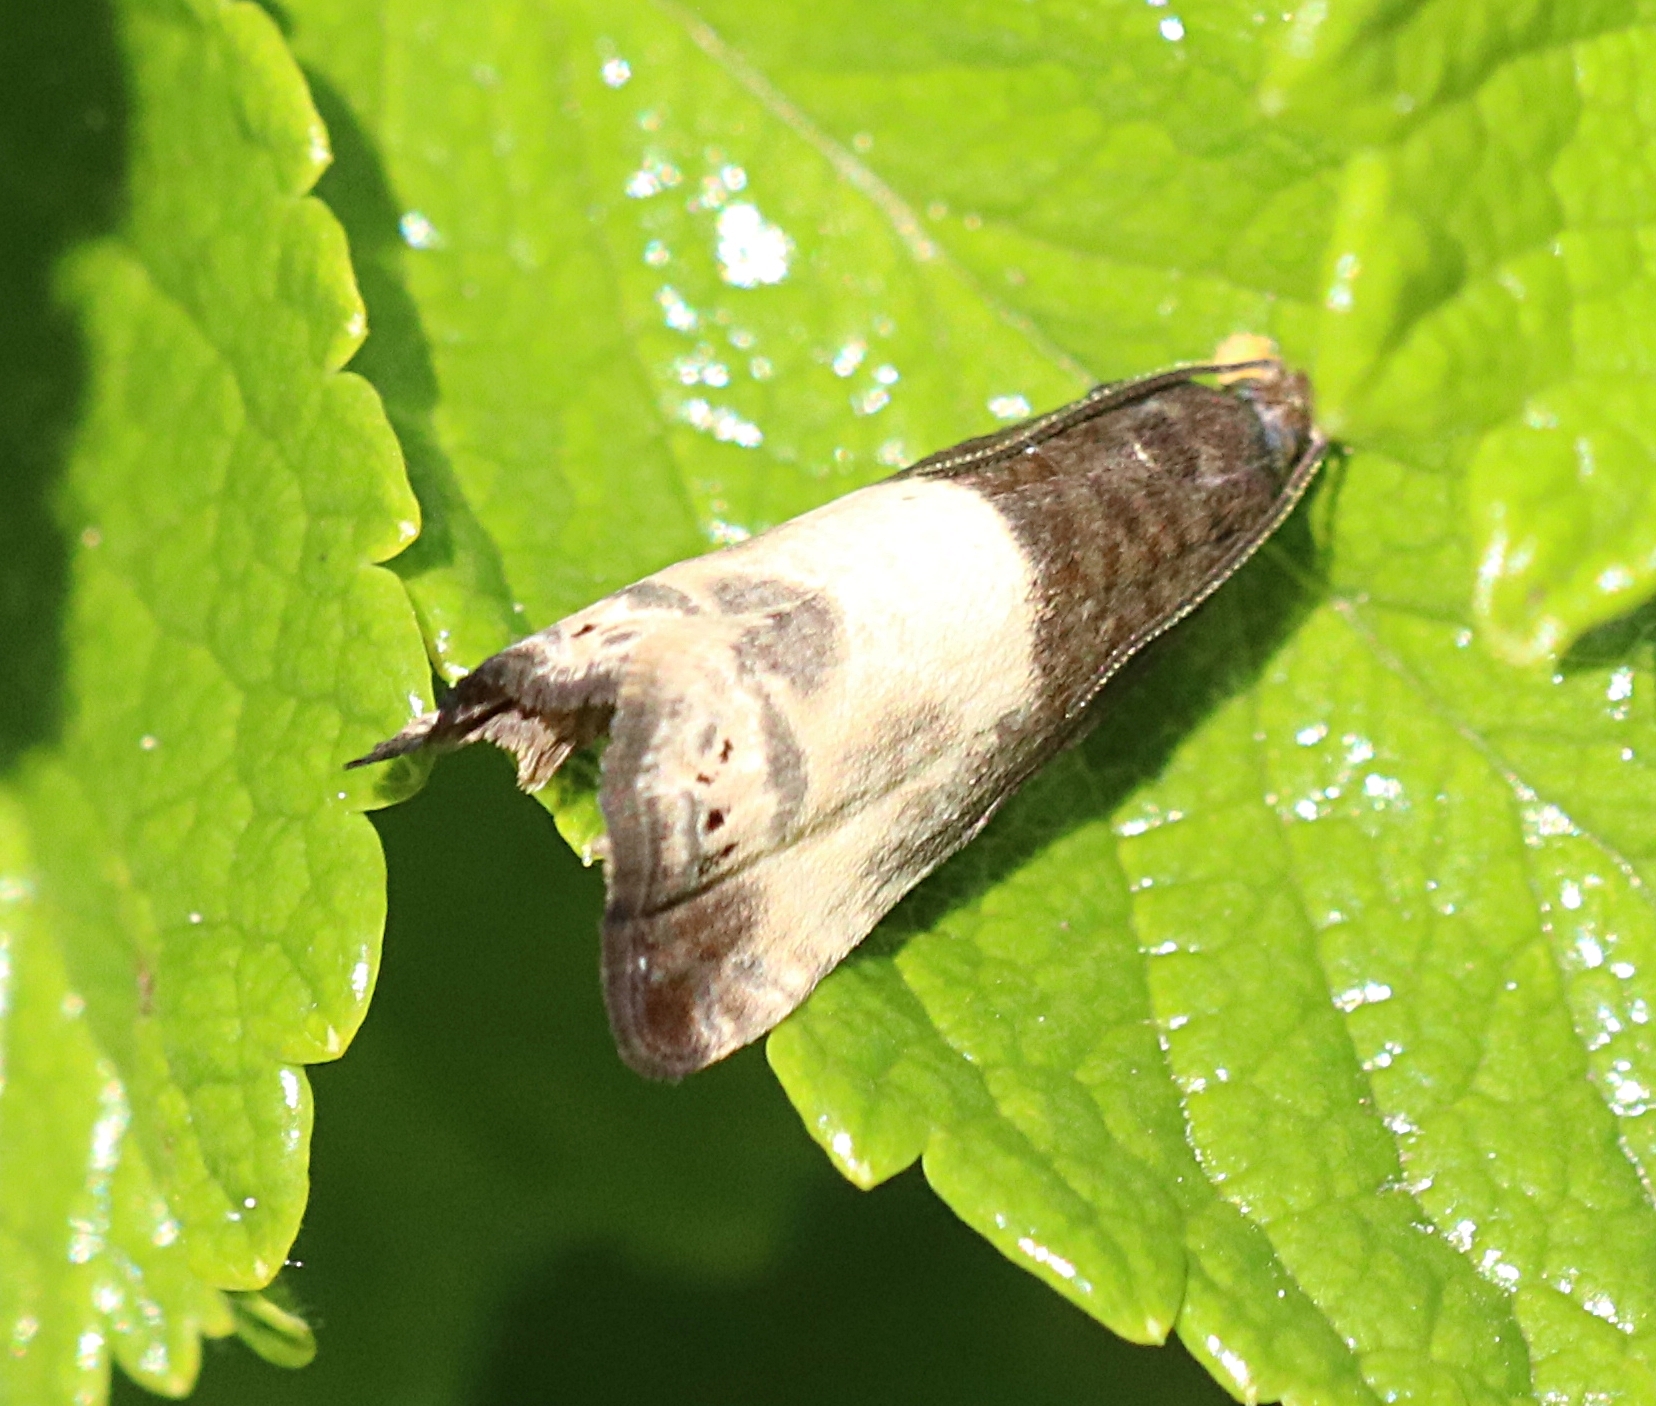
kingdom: Animalia
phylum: Arthropoda
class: Insecta
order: Lepidoptera
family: Tortricidae
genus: Notocelia
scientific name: Notocelia cynosbatella
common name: Yellow-faced bell moth
